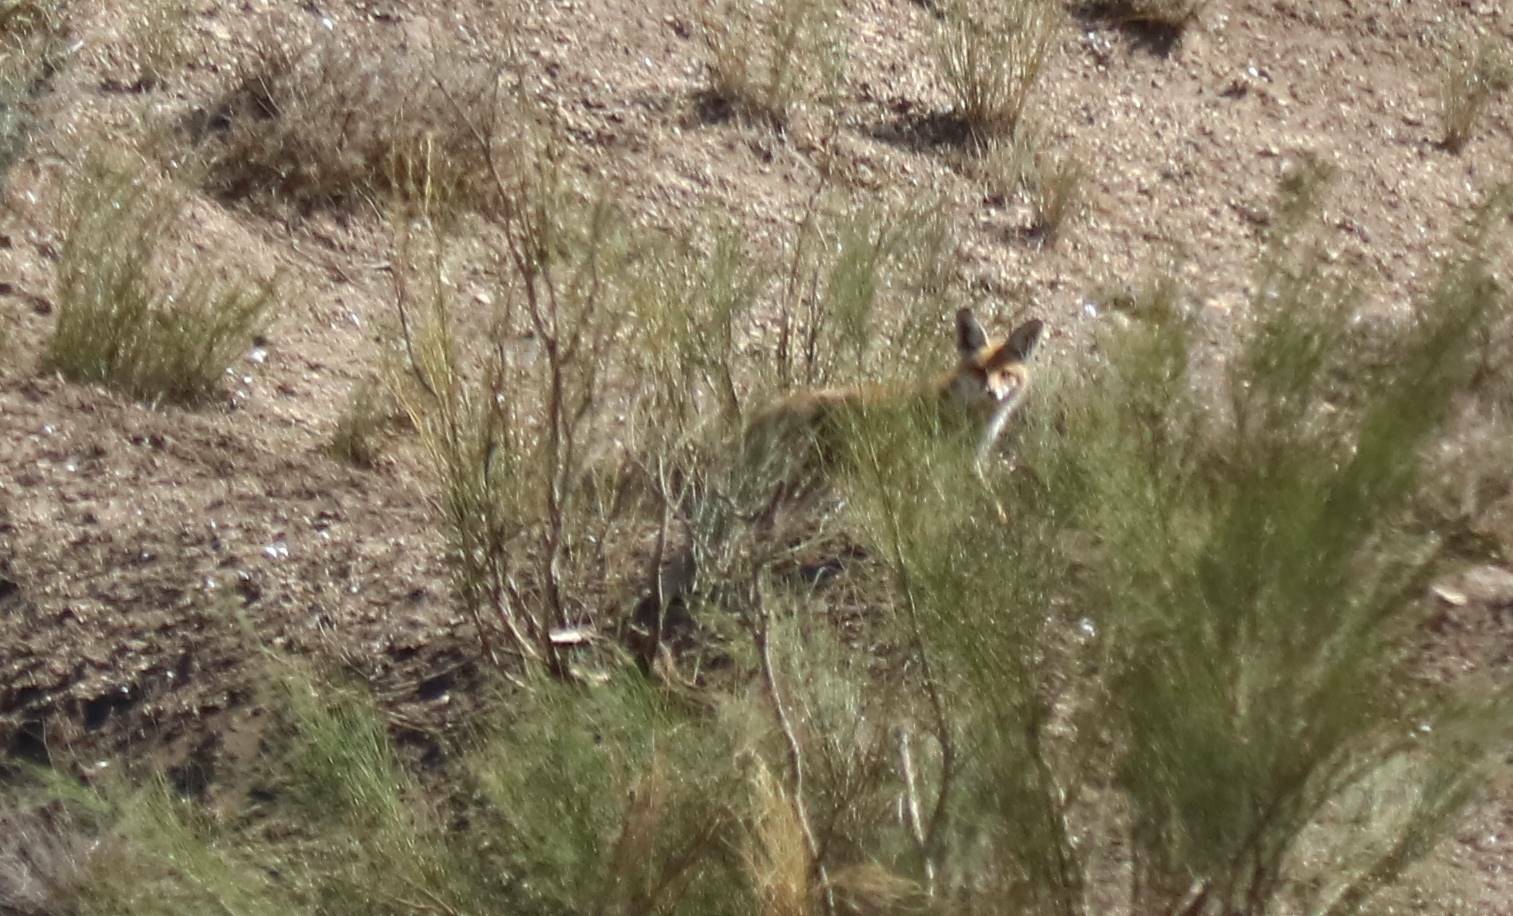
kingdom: Animalia
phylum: Chordata
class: Mammalia
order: Carnivora
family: Canidae
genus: Vulpes
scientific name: Vulpes vulpes
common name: Red fox
